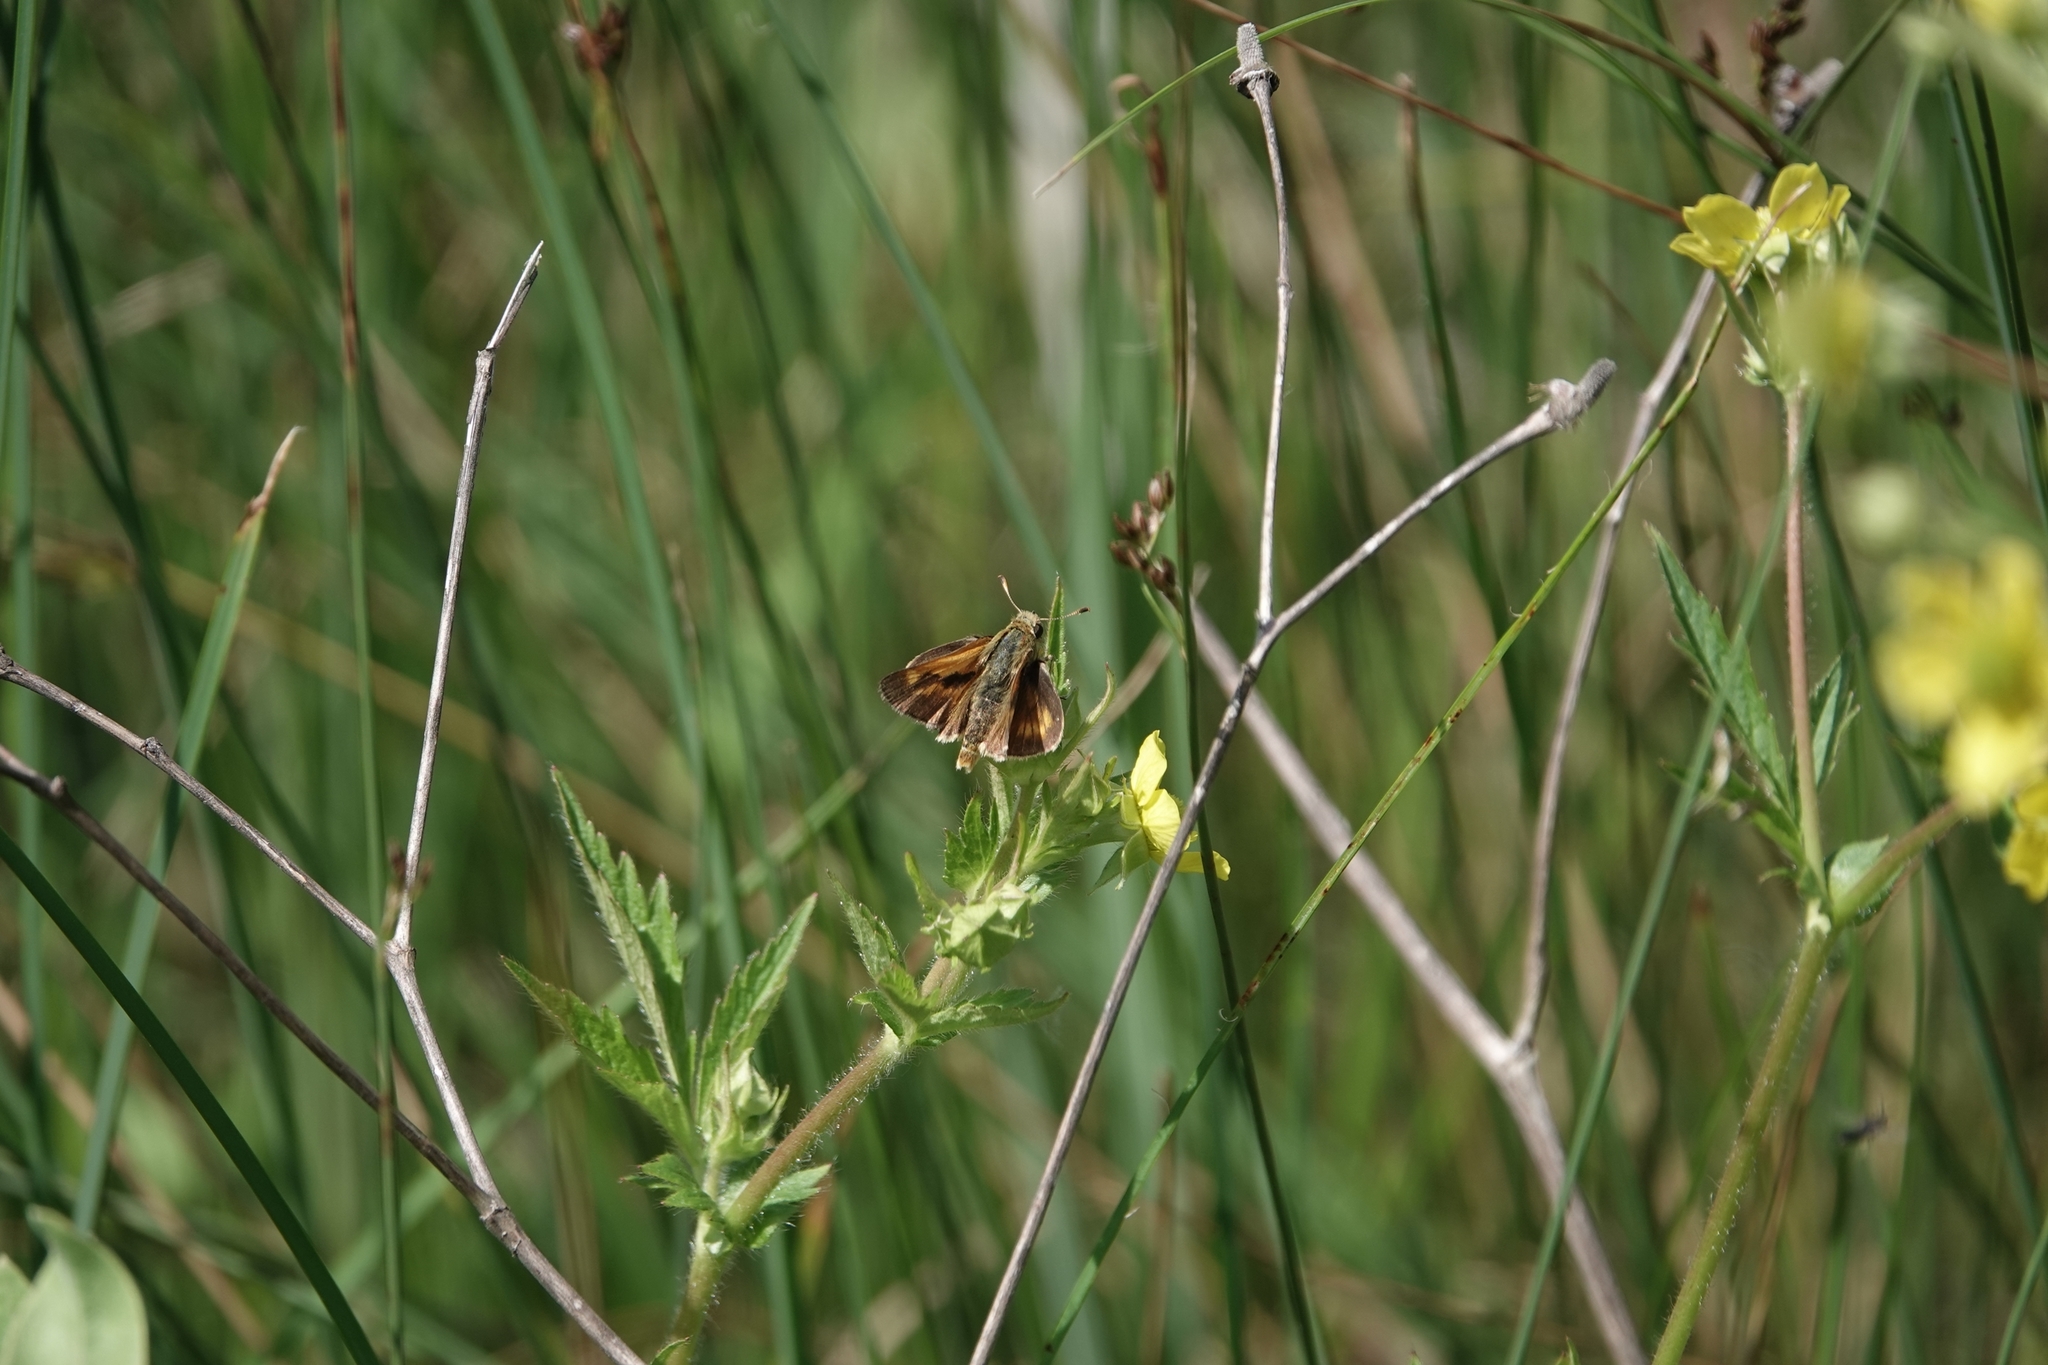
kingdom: Animalia
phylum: Arthropoda
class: Insecta
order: Lepidoptera
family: Hesperiidae
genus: Polites
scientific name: Polites mystic
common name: Long dash
